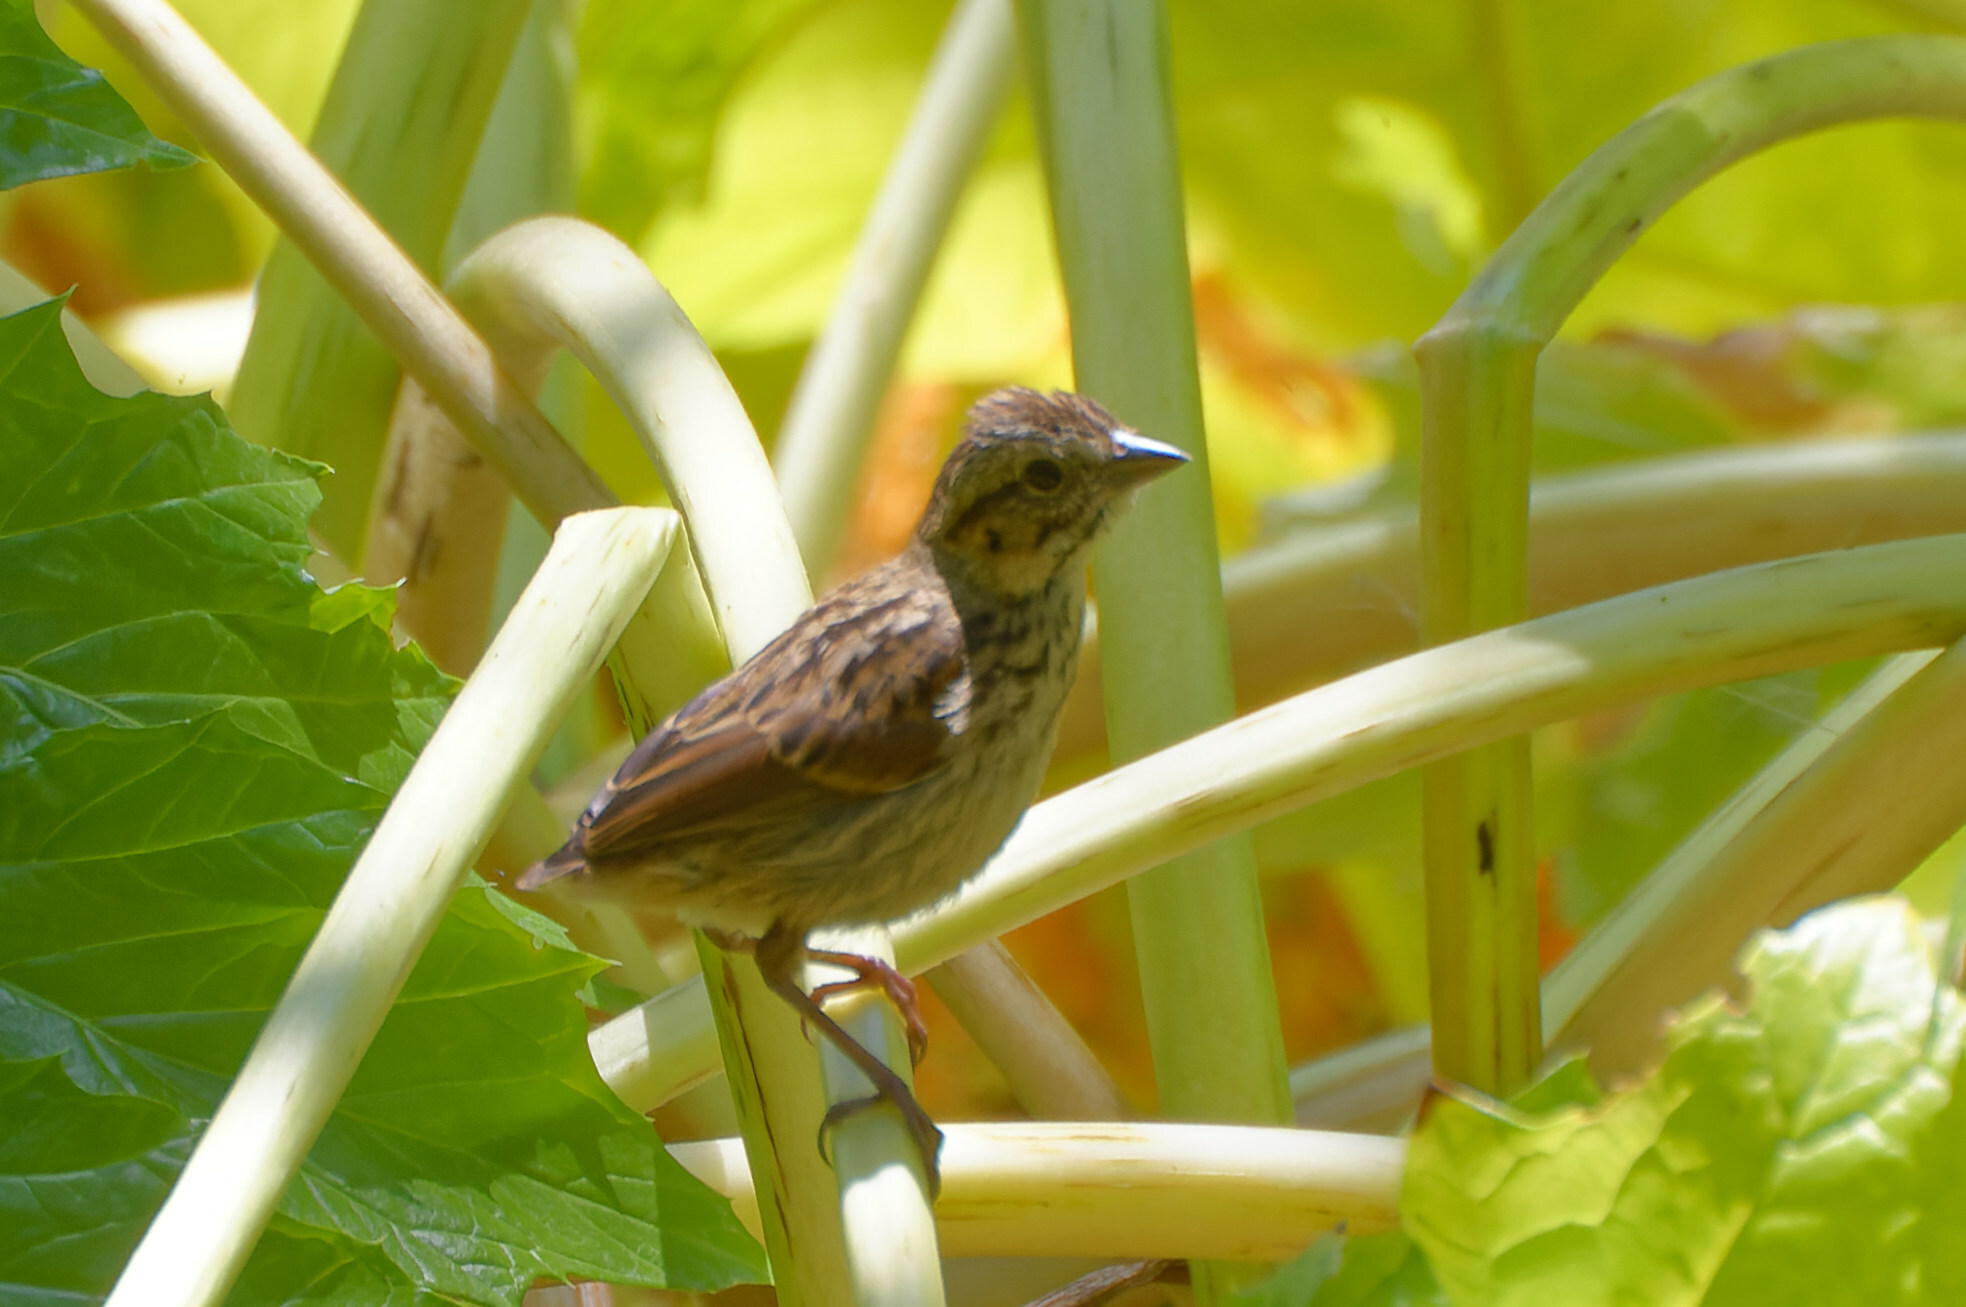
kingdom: Animalia
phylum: Chordata
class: Aves
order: Passeriformes
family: Passerellidae
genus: Melospiza
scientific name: Melospiza melodia
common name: Song sparrow
